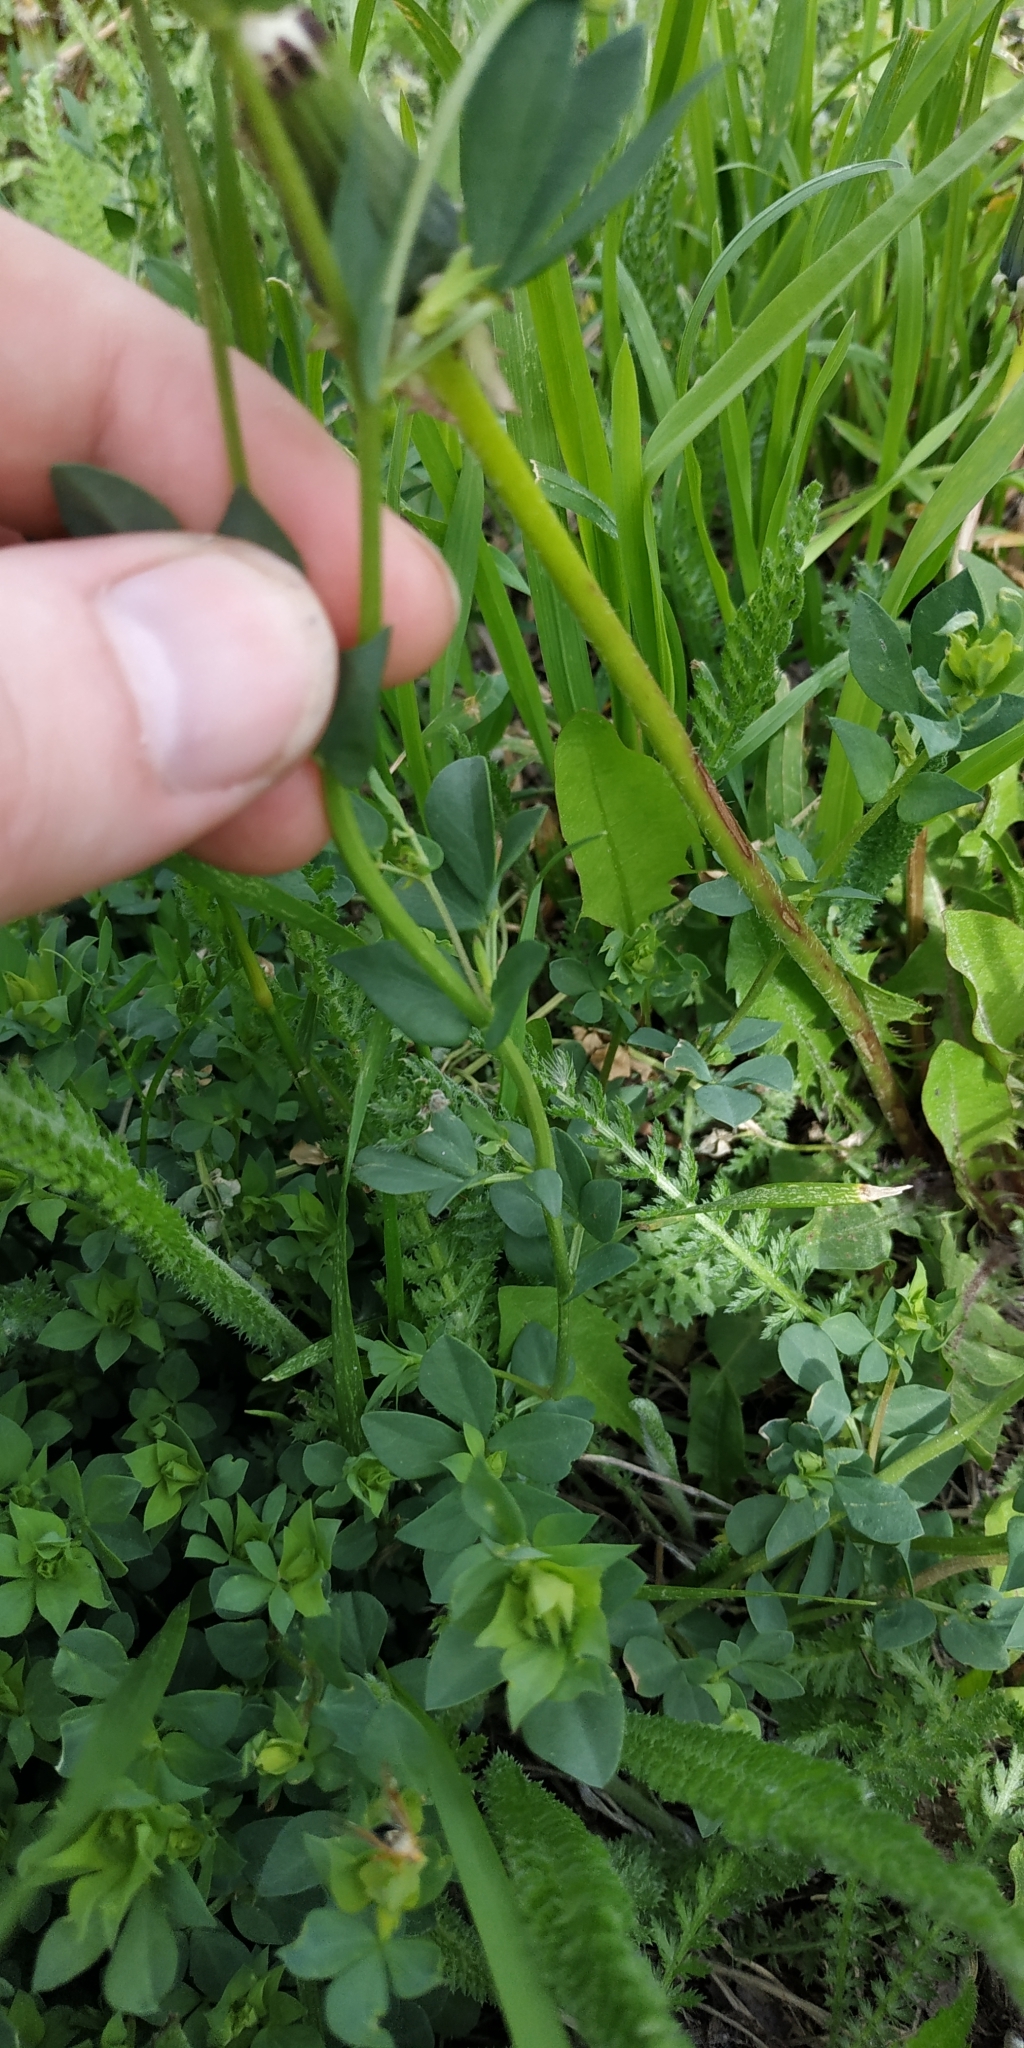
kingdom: Plantae
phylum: Tracheophyta
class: Magnoliopsida
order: Fabales
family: Fabaceae
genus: Lotus
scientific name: Lotus ucrainicus
